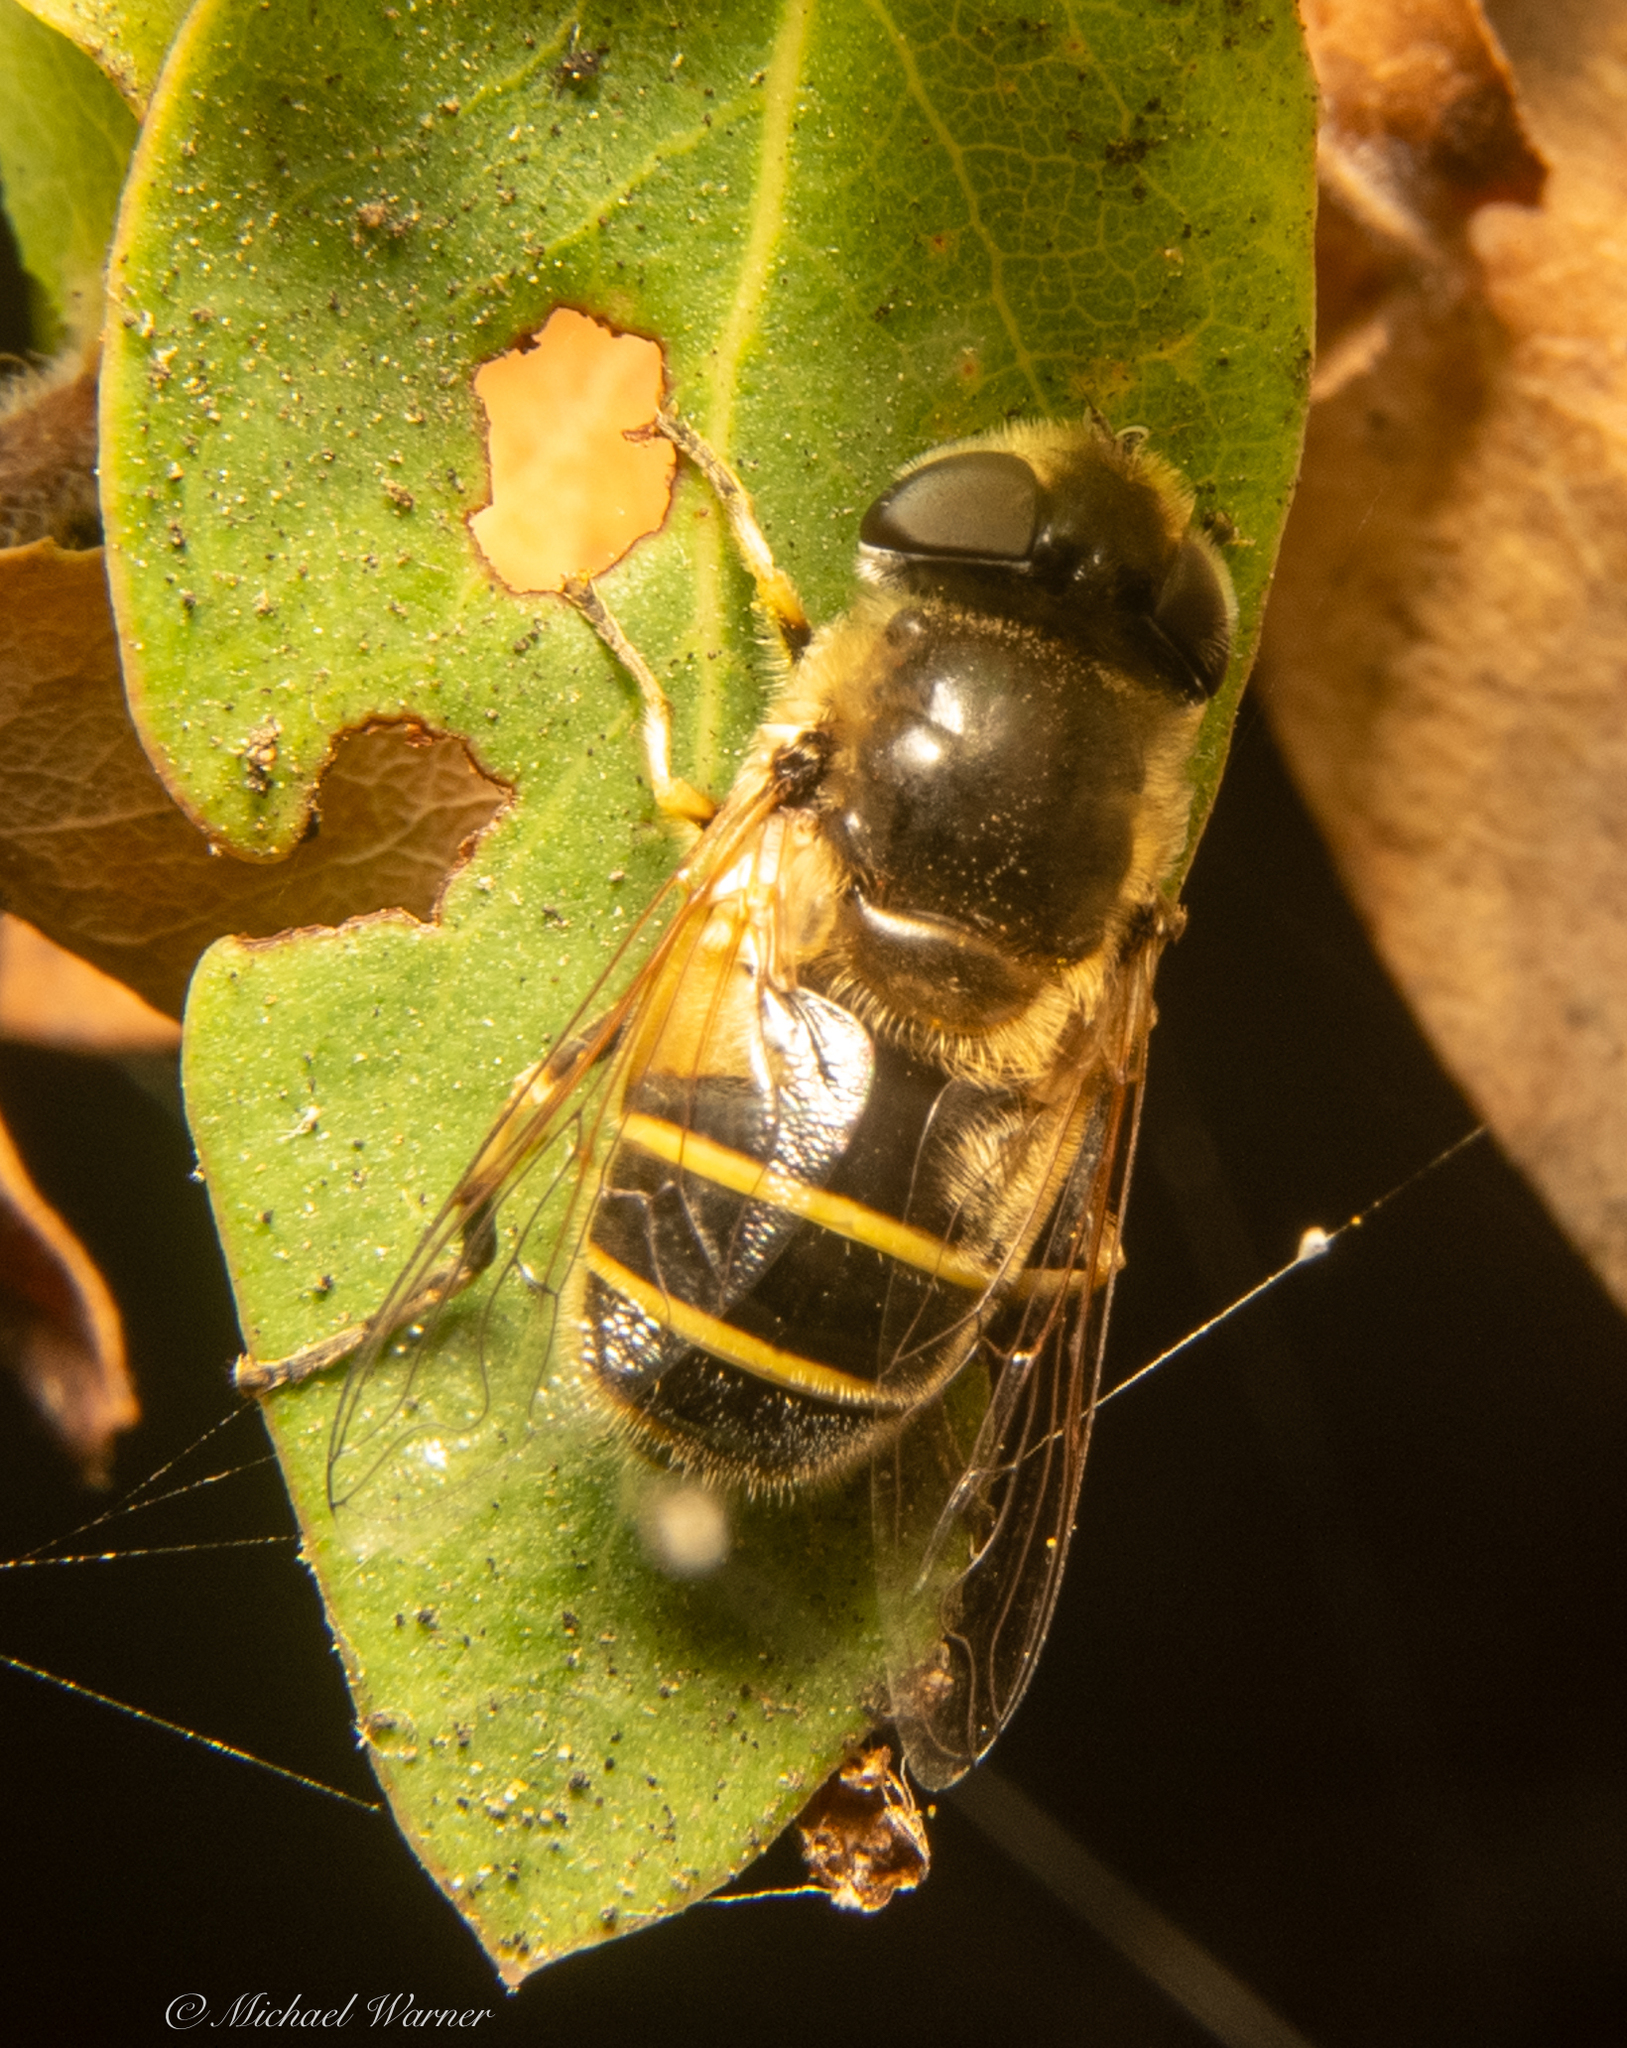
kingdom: Animalia
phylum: Arthropoda
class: Insecta
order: Diptera
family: Syrphidae
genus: Eristalis
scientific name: Eristalis hirta
